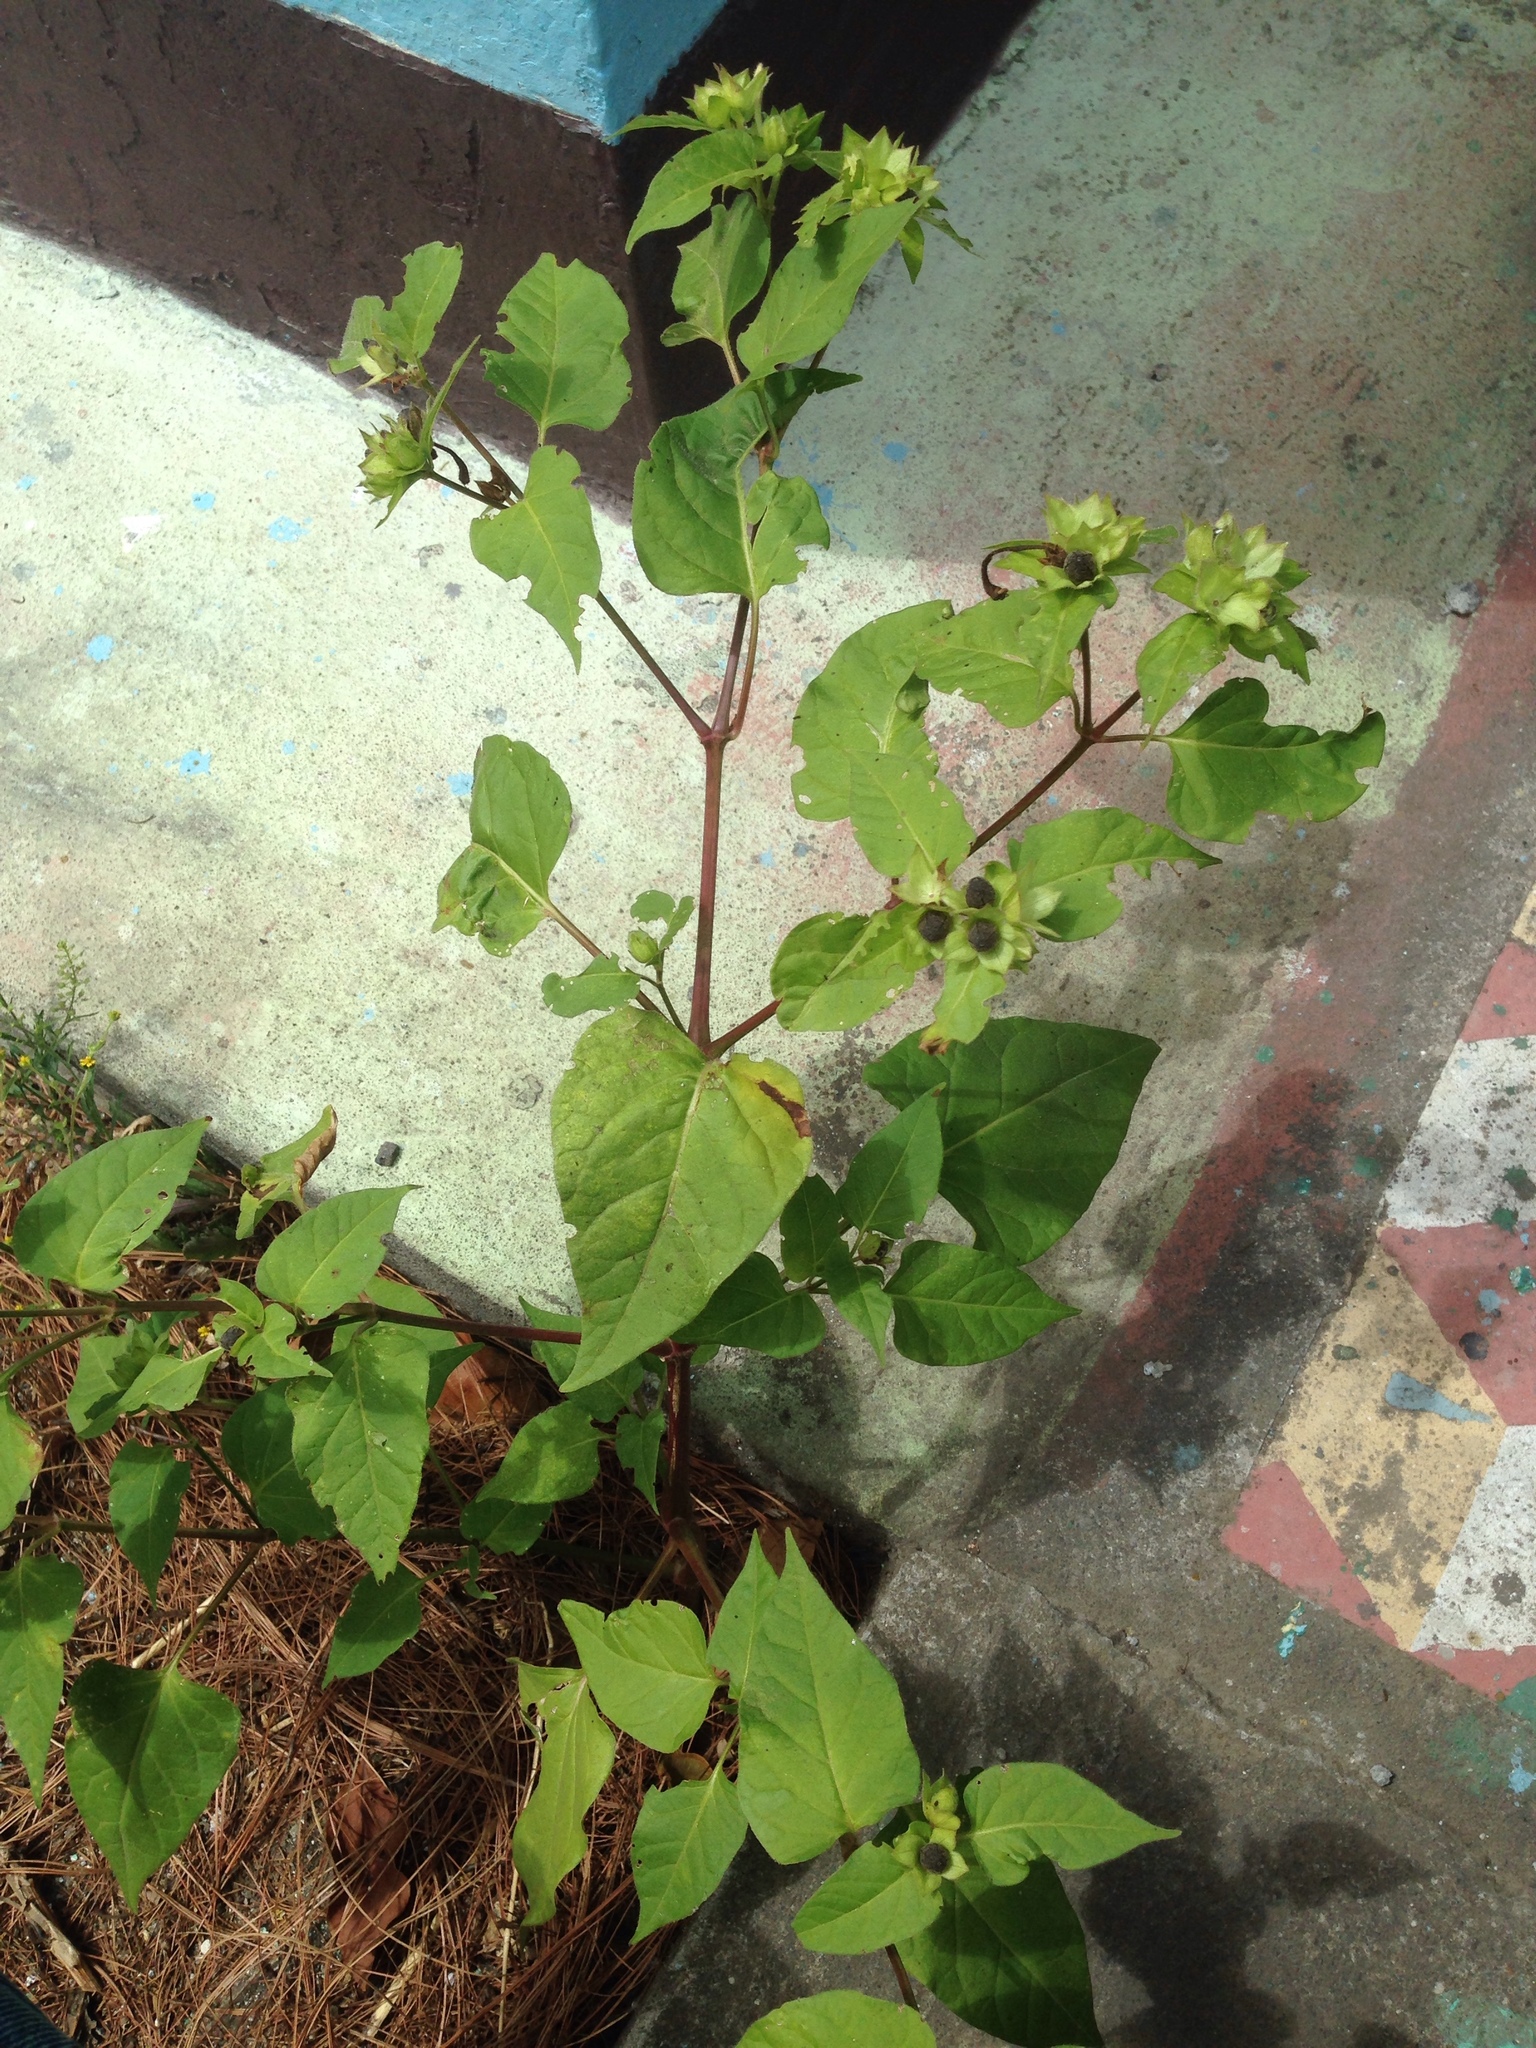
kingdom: Plantae
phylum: Tracheophyta
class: Magnoliopsida
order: Caryophyllales
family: Nyctaginaceae
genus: Mirabilis
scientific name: Mirabilis jalapa
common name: Marvel-of-peru
